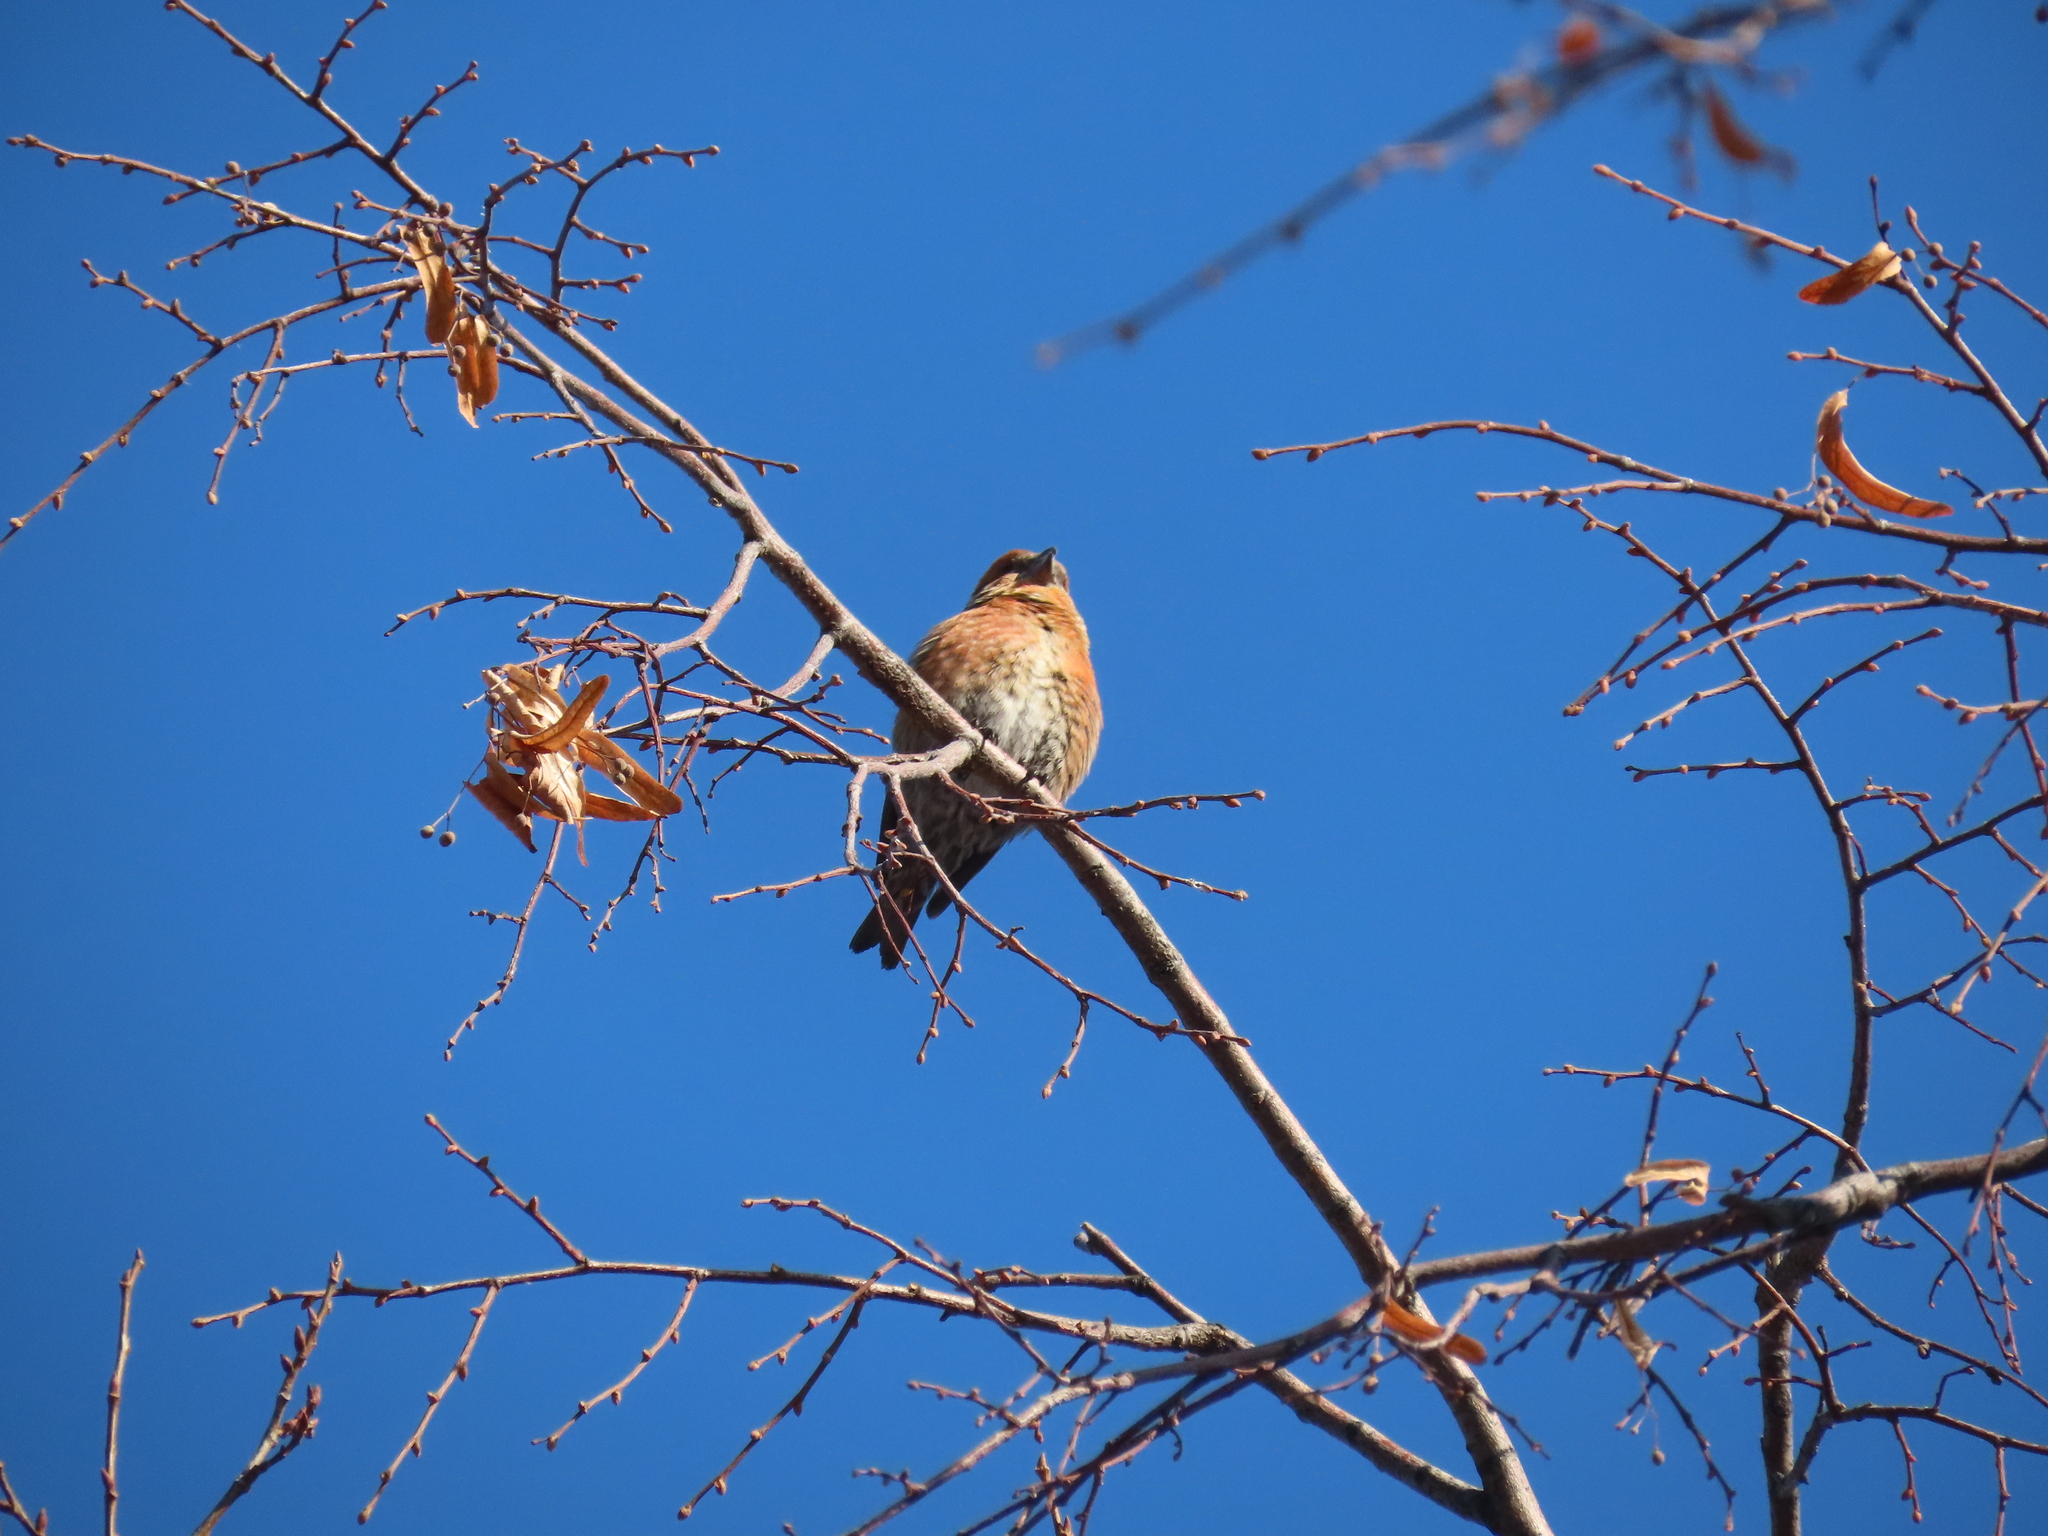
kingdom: Animalia
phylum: Chordata
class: Aves
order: Passeriformes
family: Fringillidae
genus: Loxia
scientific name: Loxia curvirostra
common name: Red crossbill
